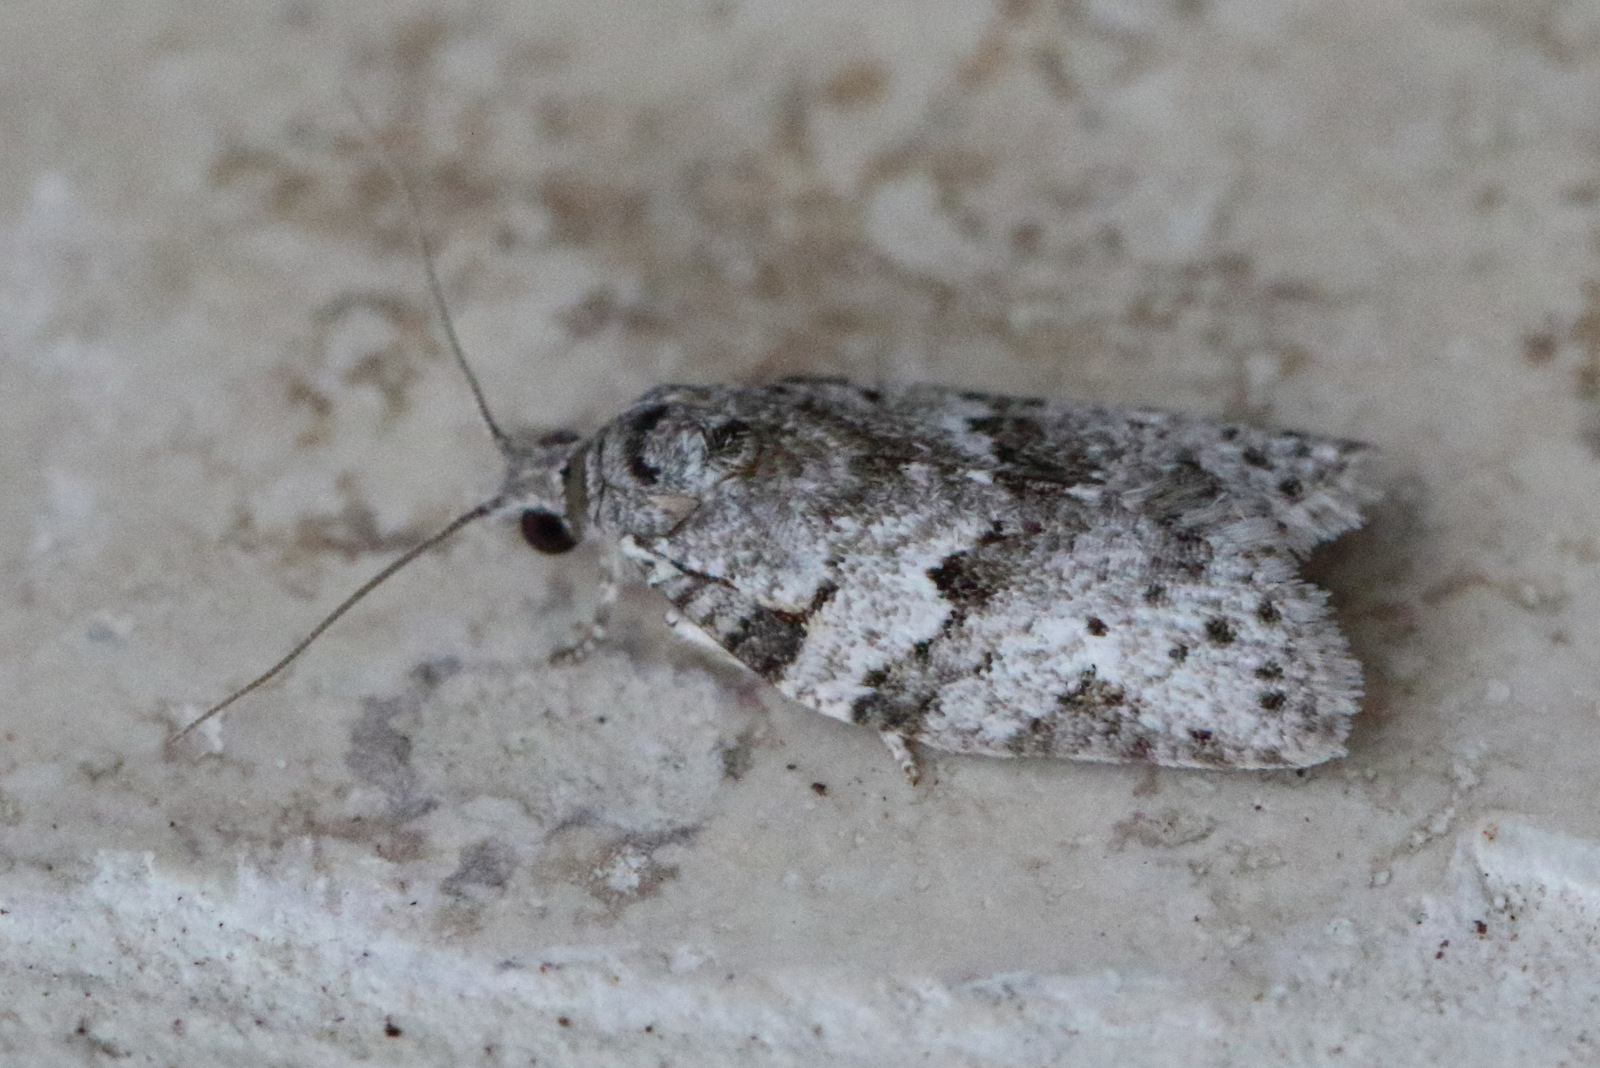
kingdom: Animalia
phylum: Arthropoda
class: Insecta
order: Lepidoptera
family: Tortricidae
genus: Isotenes
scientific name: Isotenes miserana
